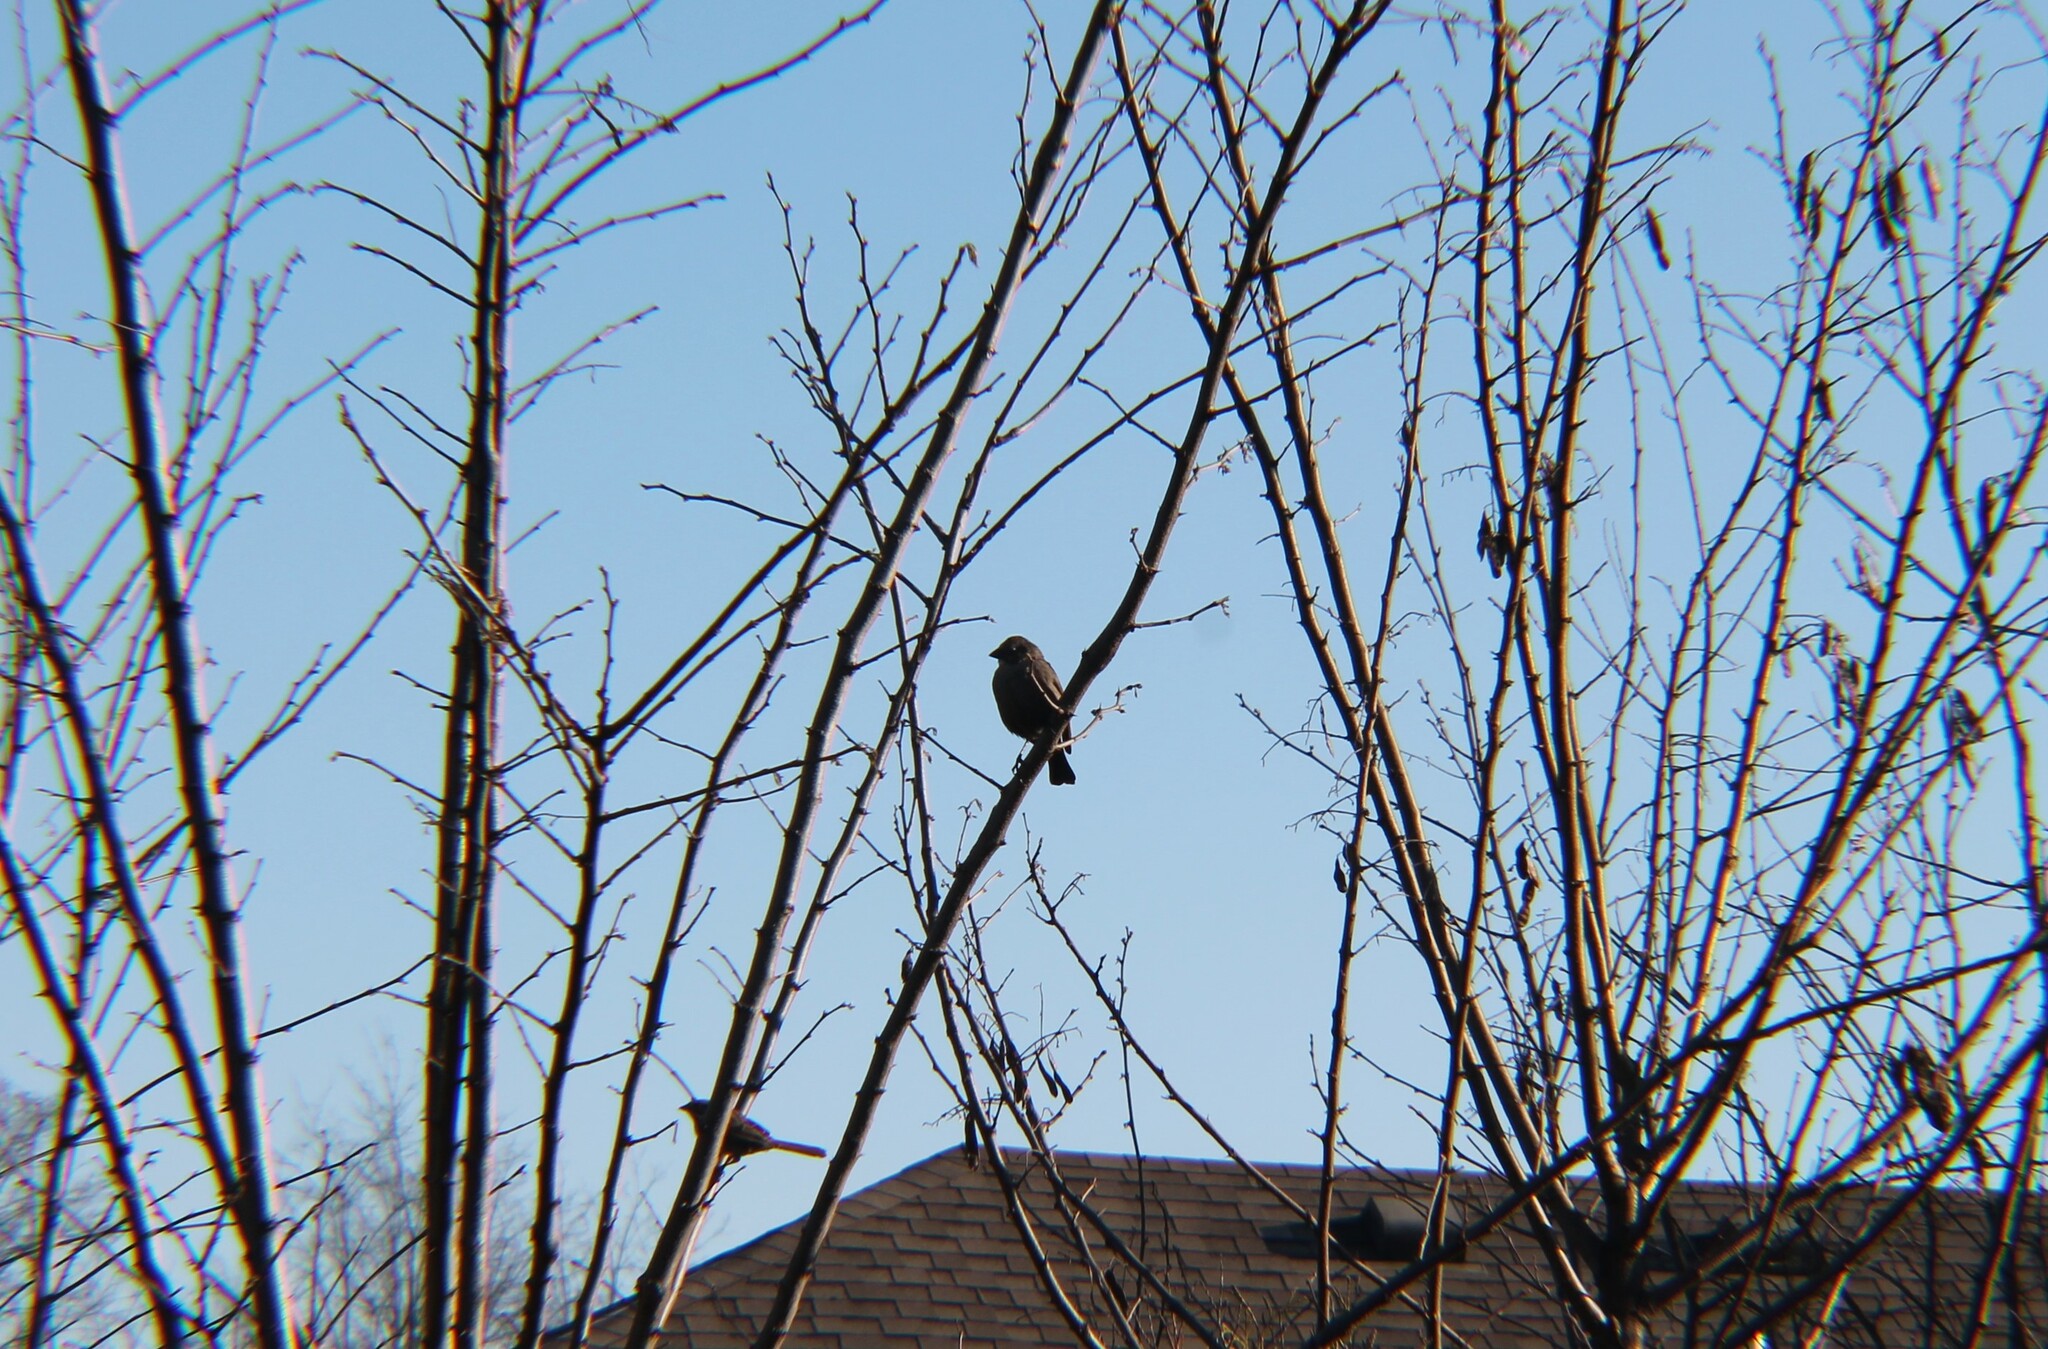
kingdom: Animalia
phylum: Chordata
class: Aves
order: Passeriformes
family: Icteridae
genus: Molothrus
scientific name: Molothrus ater
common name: Brown-headed cowbird
